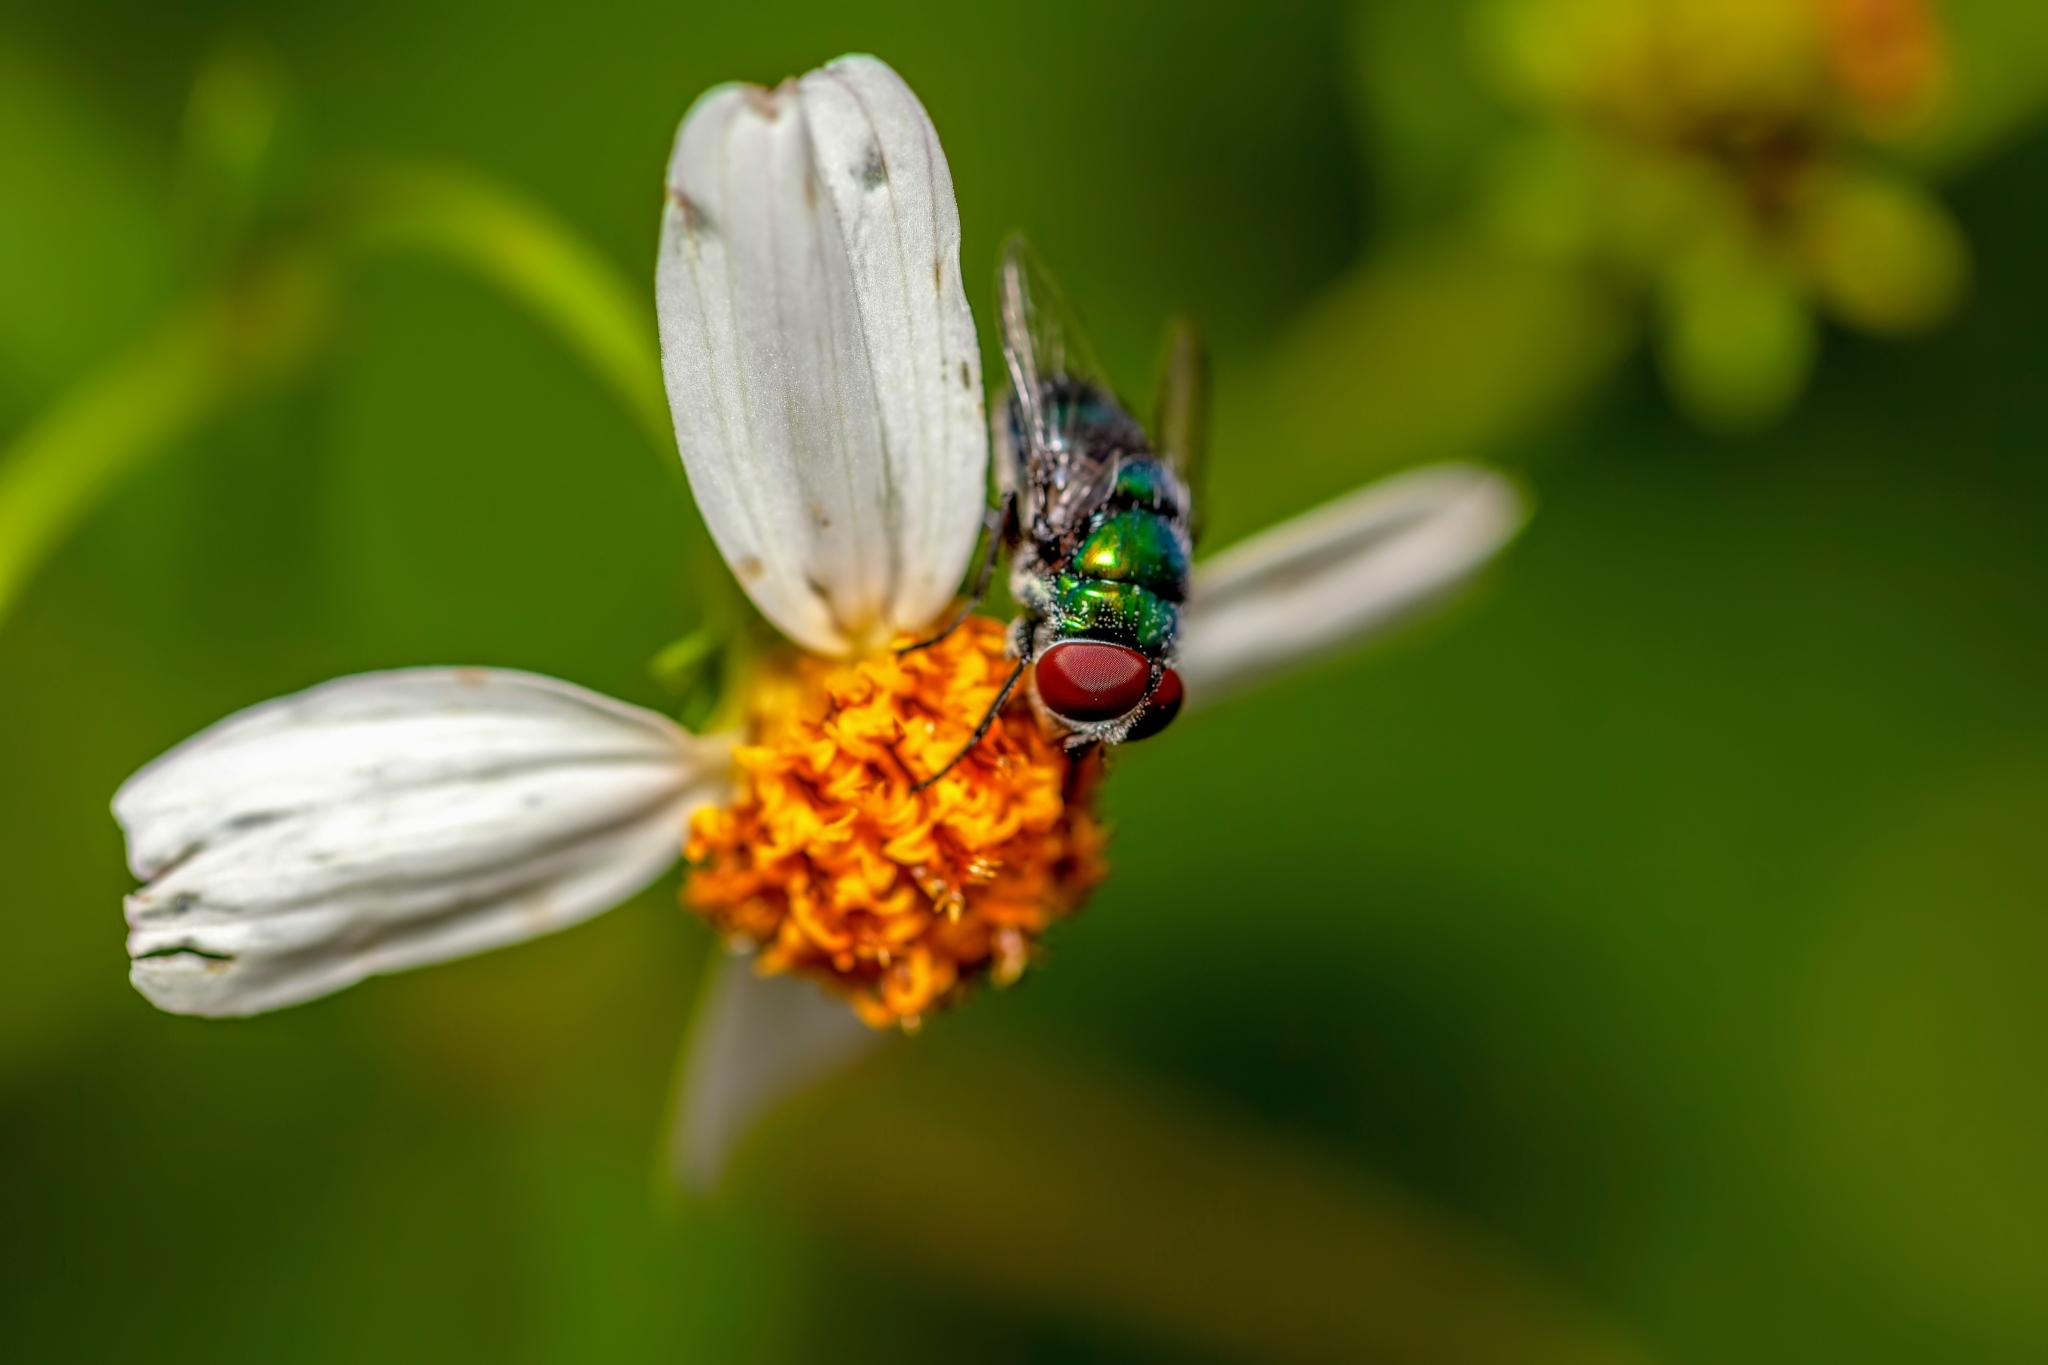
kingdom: Animalia
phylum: Arthropoda
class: Insecta
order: Diptera
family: Calliphoridae
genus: Chrysomya
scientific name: Chrysomya rufifacies
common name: Blow fly
